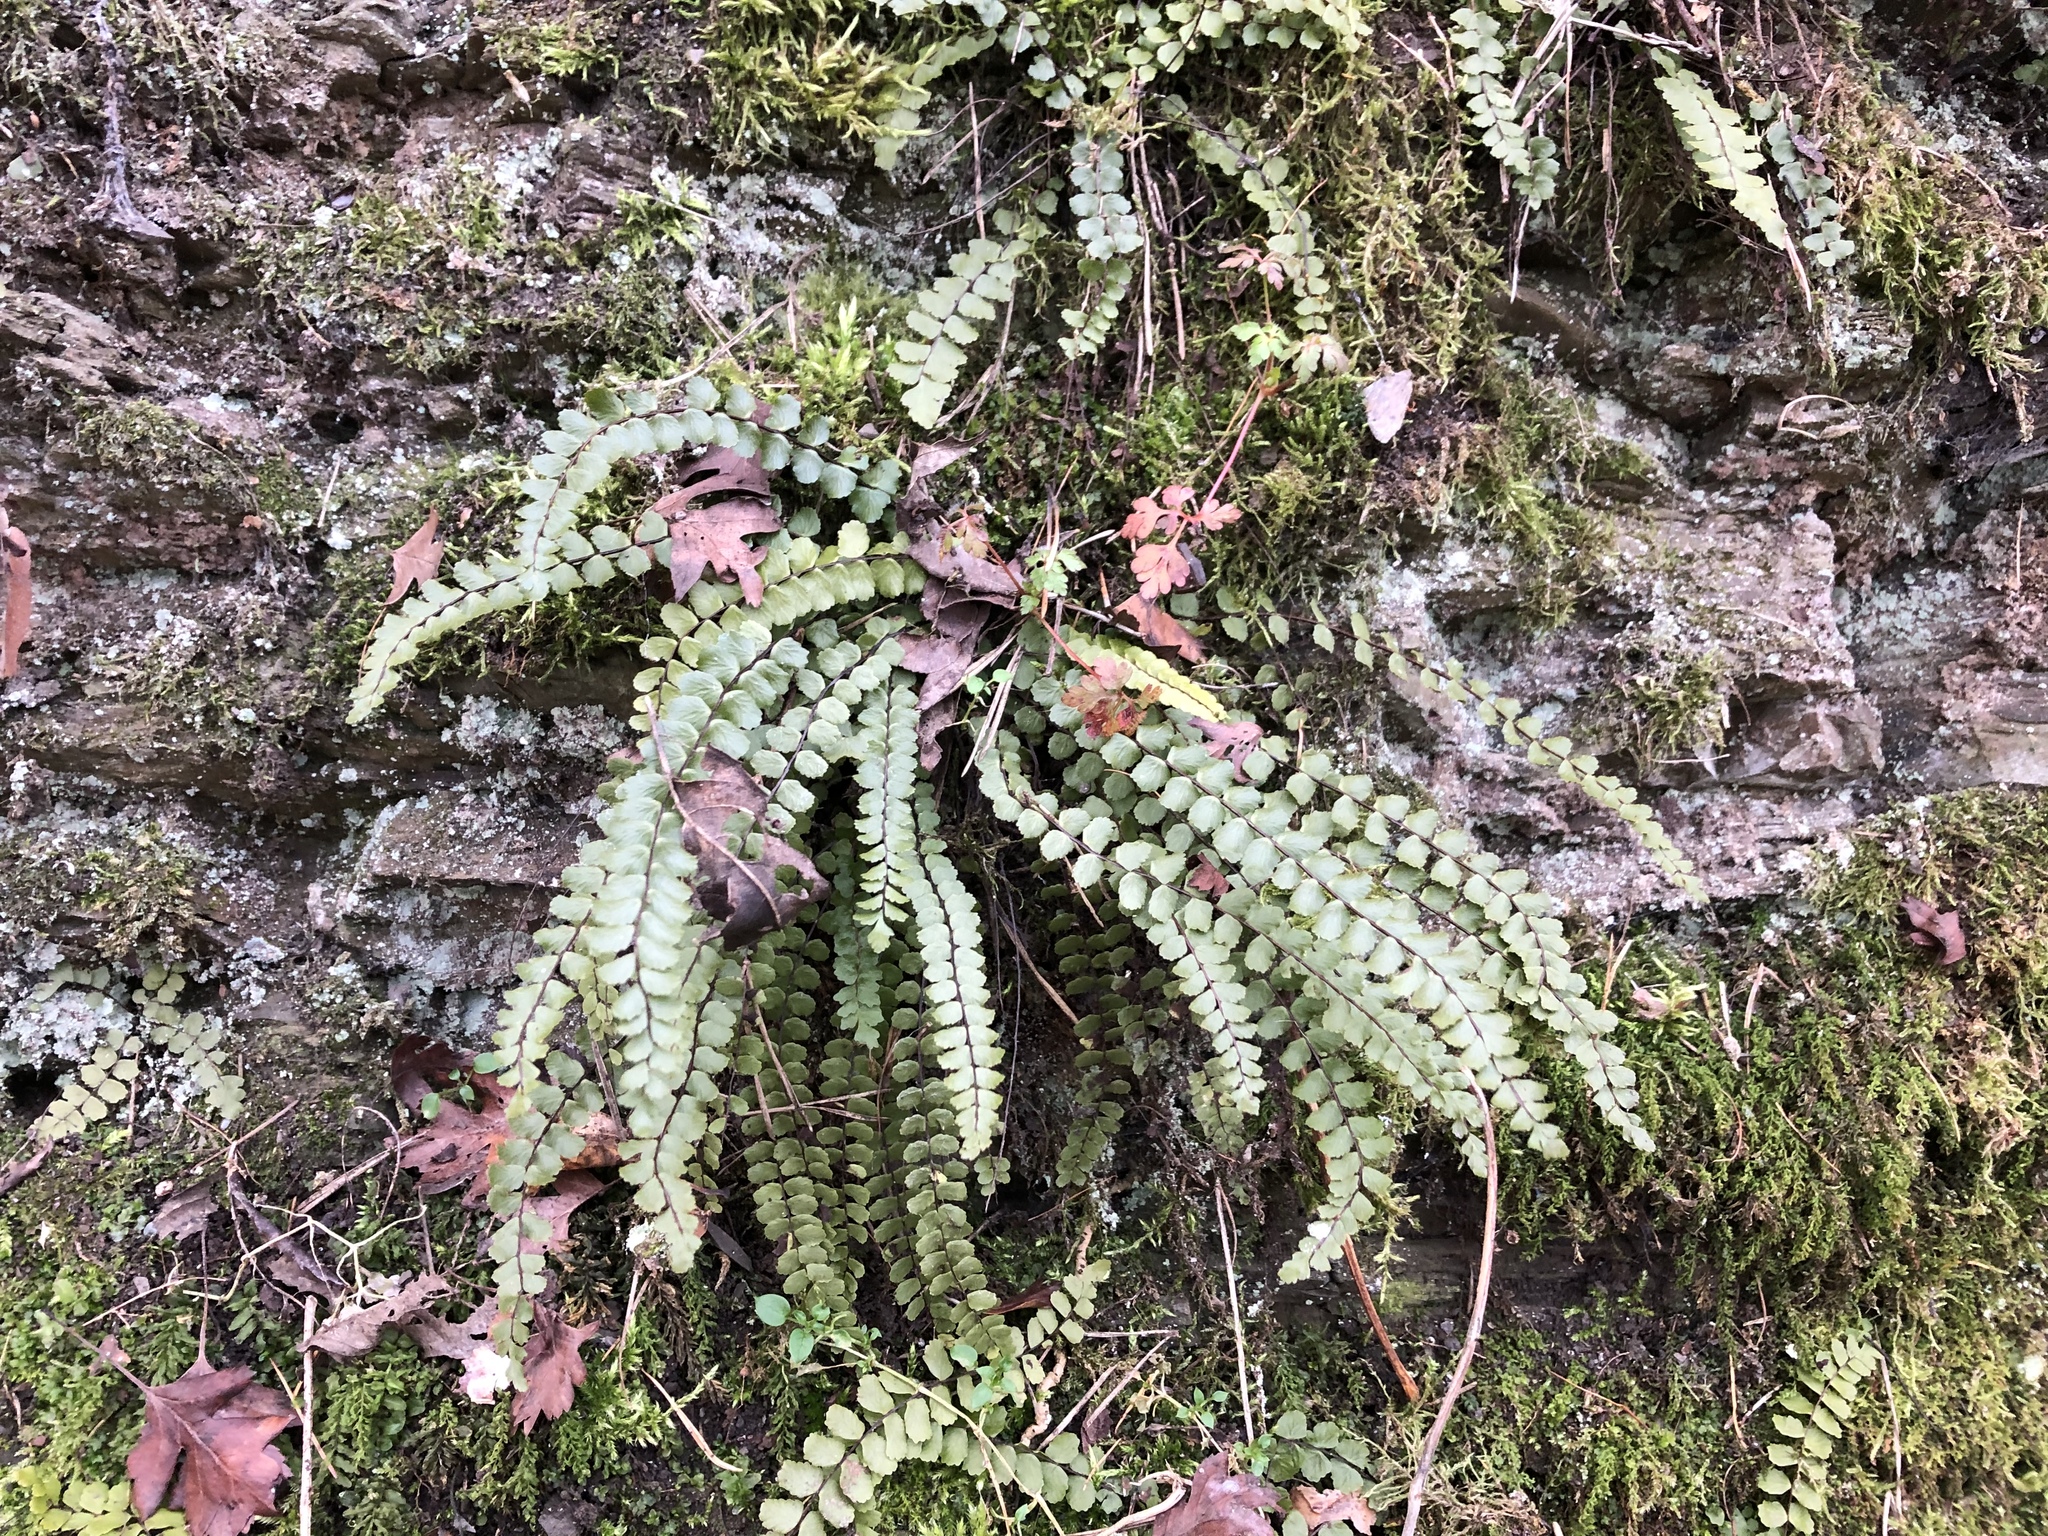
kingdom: Plantae
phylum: Tracheophyta
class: Polypodiopsida
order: Polypodiales
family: Aspleniaceae
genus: Asplenium
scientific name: Asplenium trichomanes
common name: Maidenhair spleenwort
